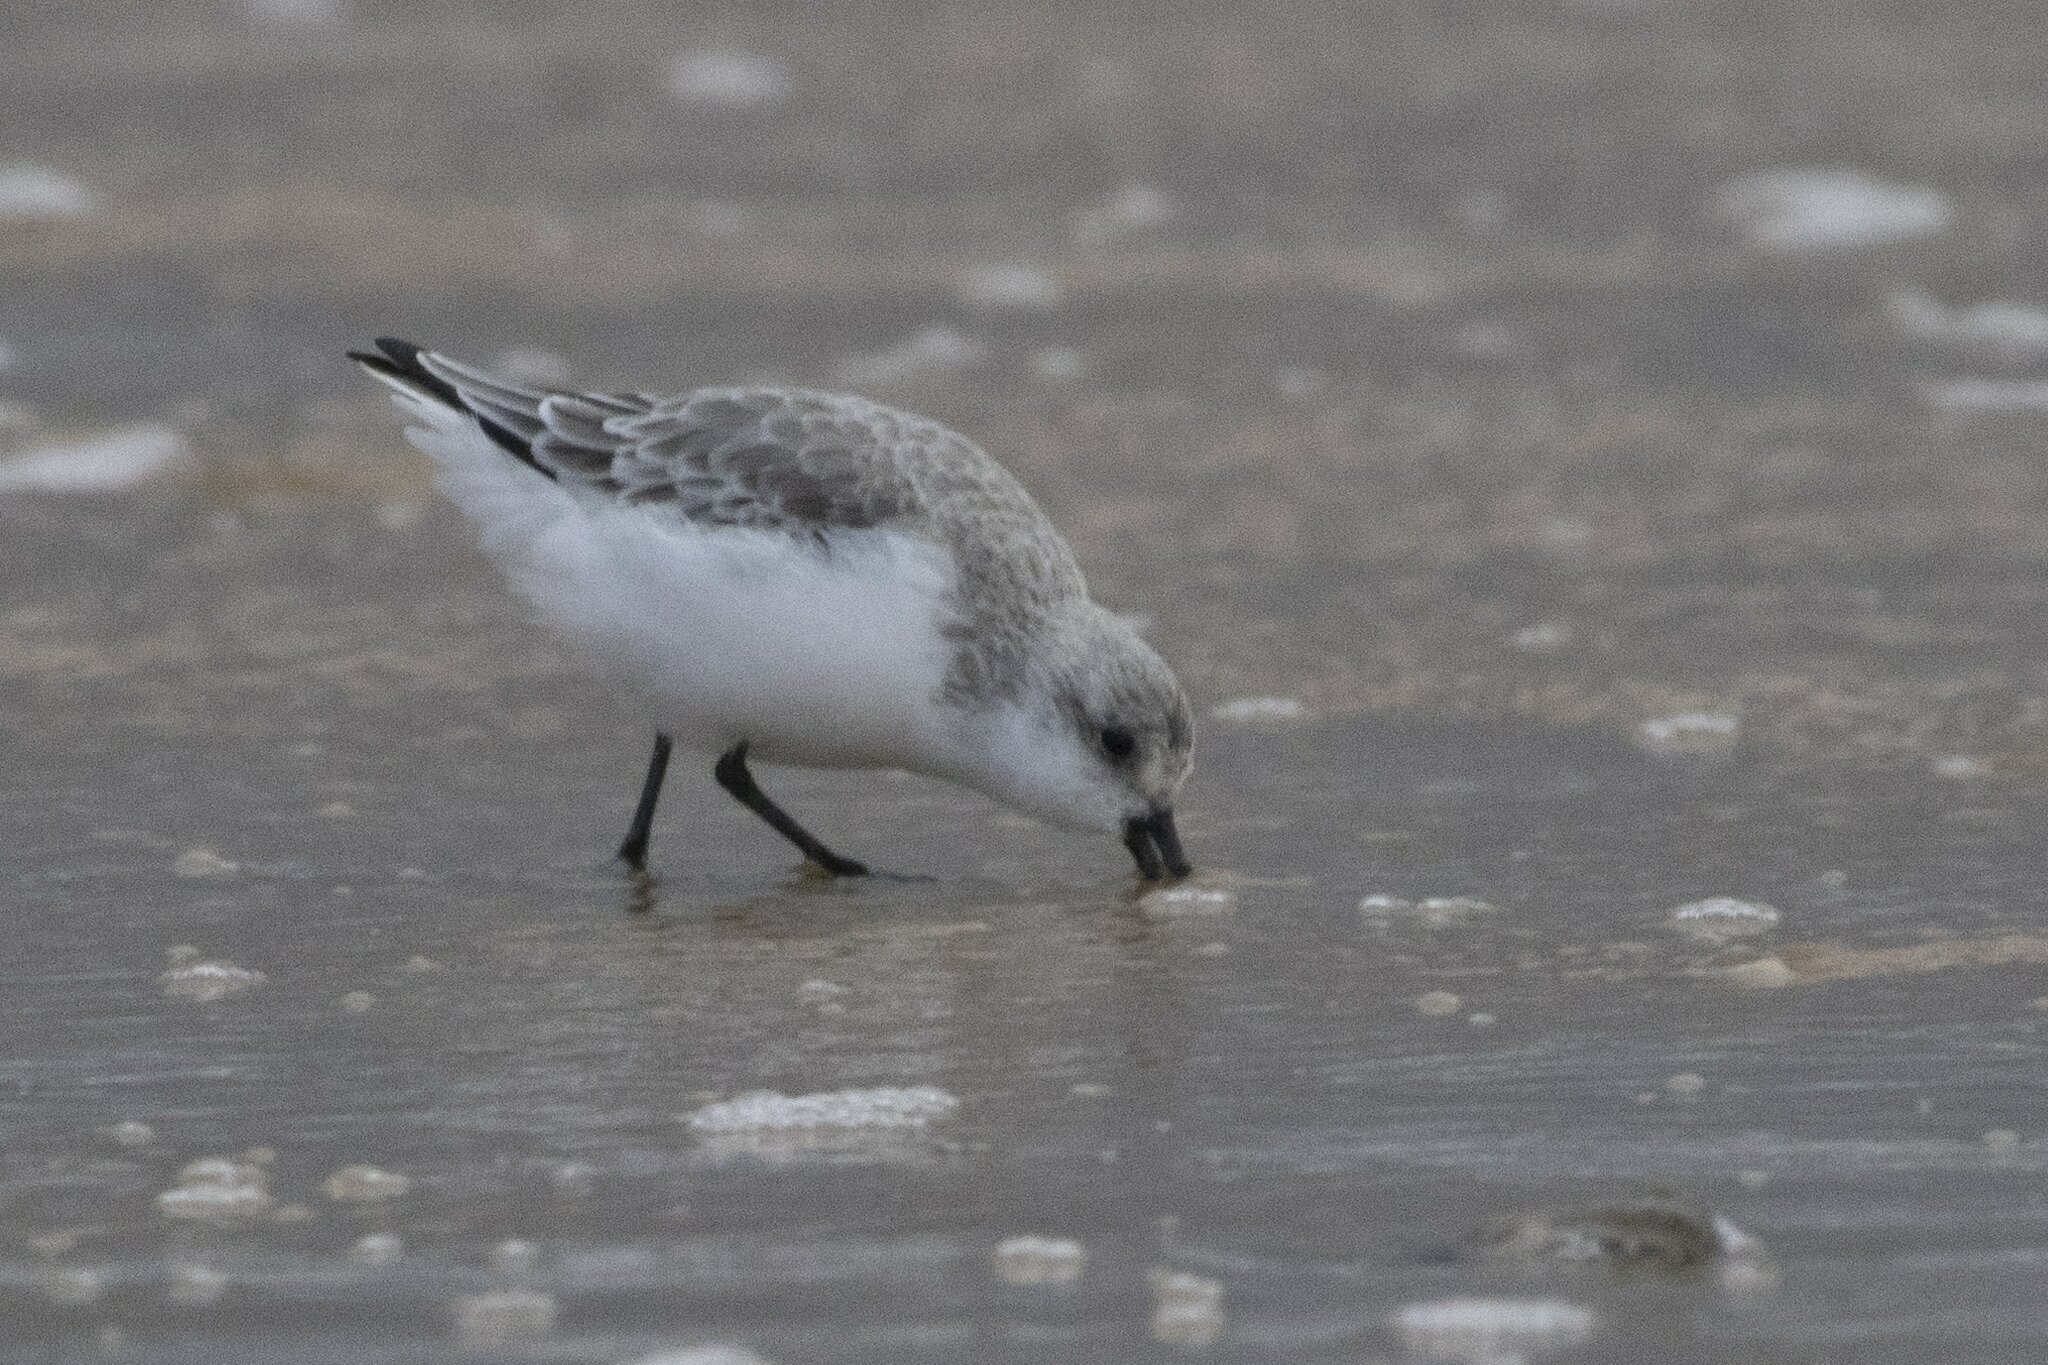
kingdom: Animalia
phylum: Chordata
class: Aves
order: Charadriiformes
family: Scolopacidae
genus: Calidris
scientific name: Calidris alba
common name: Sanderling
